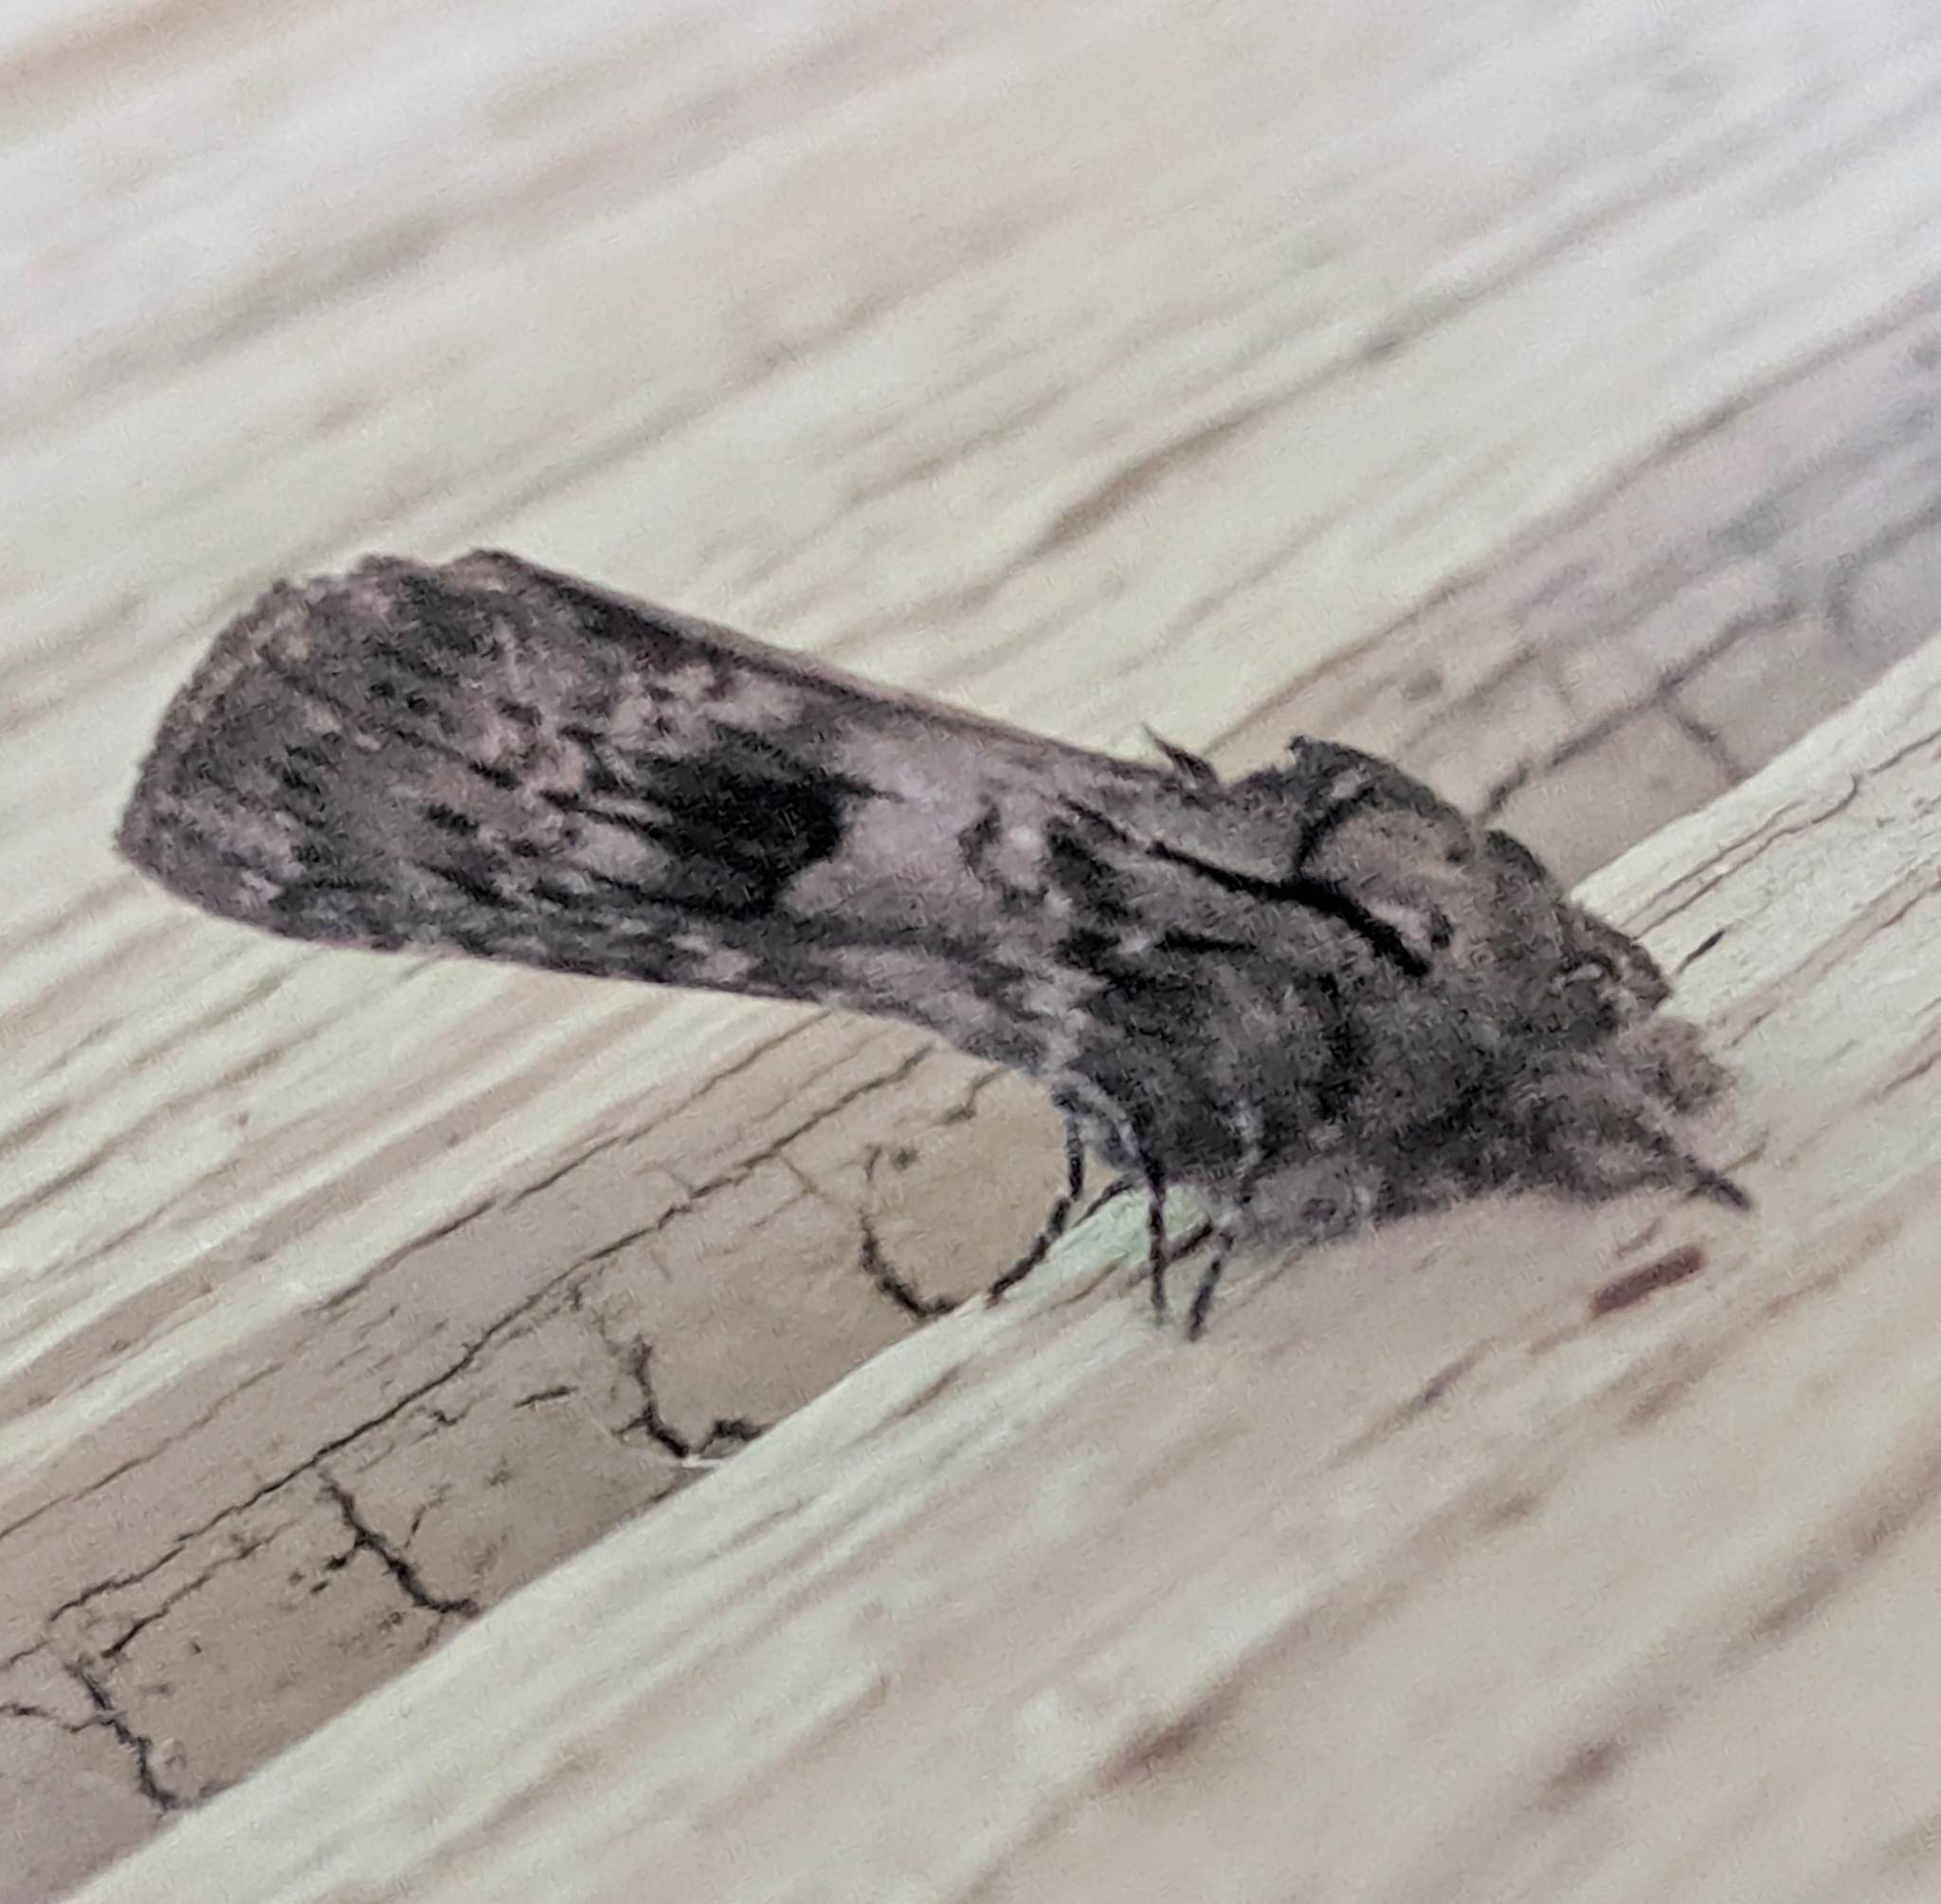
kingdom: Animalia
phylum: Arthropoda
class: Insecta
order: Lepidoptera
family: Notodontidae
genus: Schizura
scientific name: Schizura
